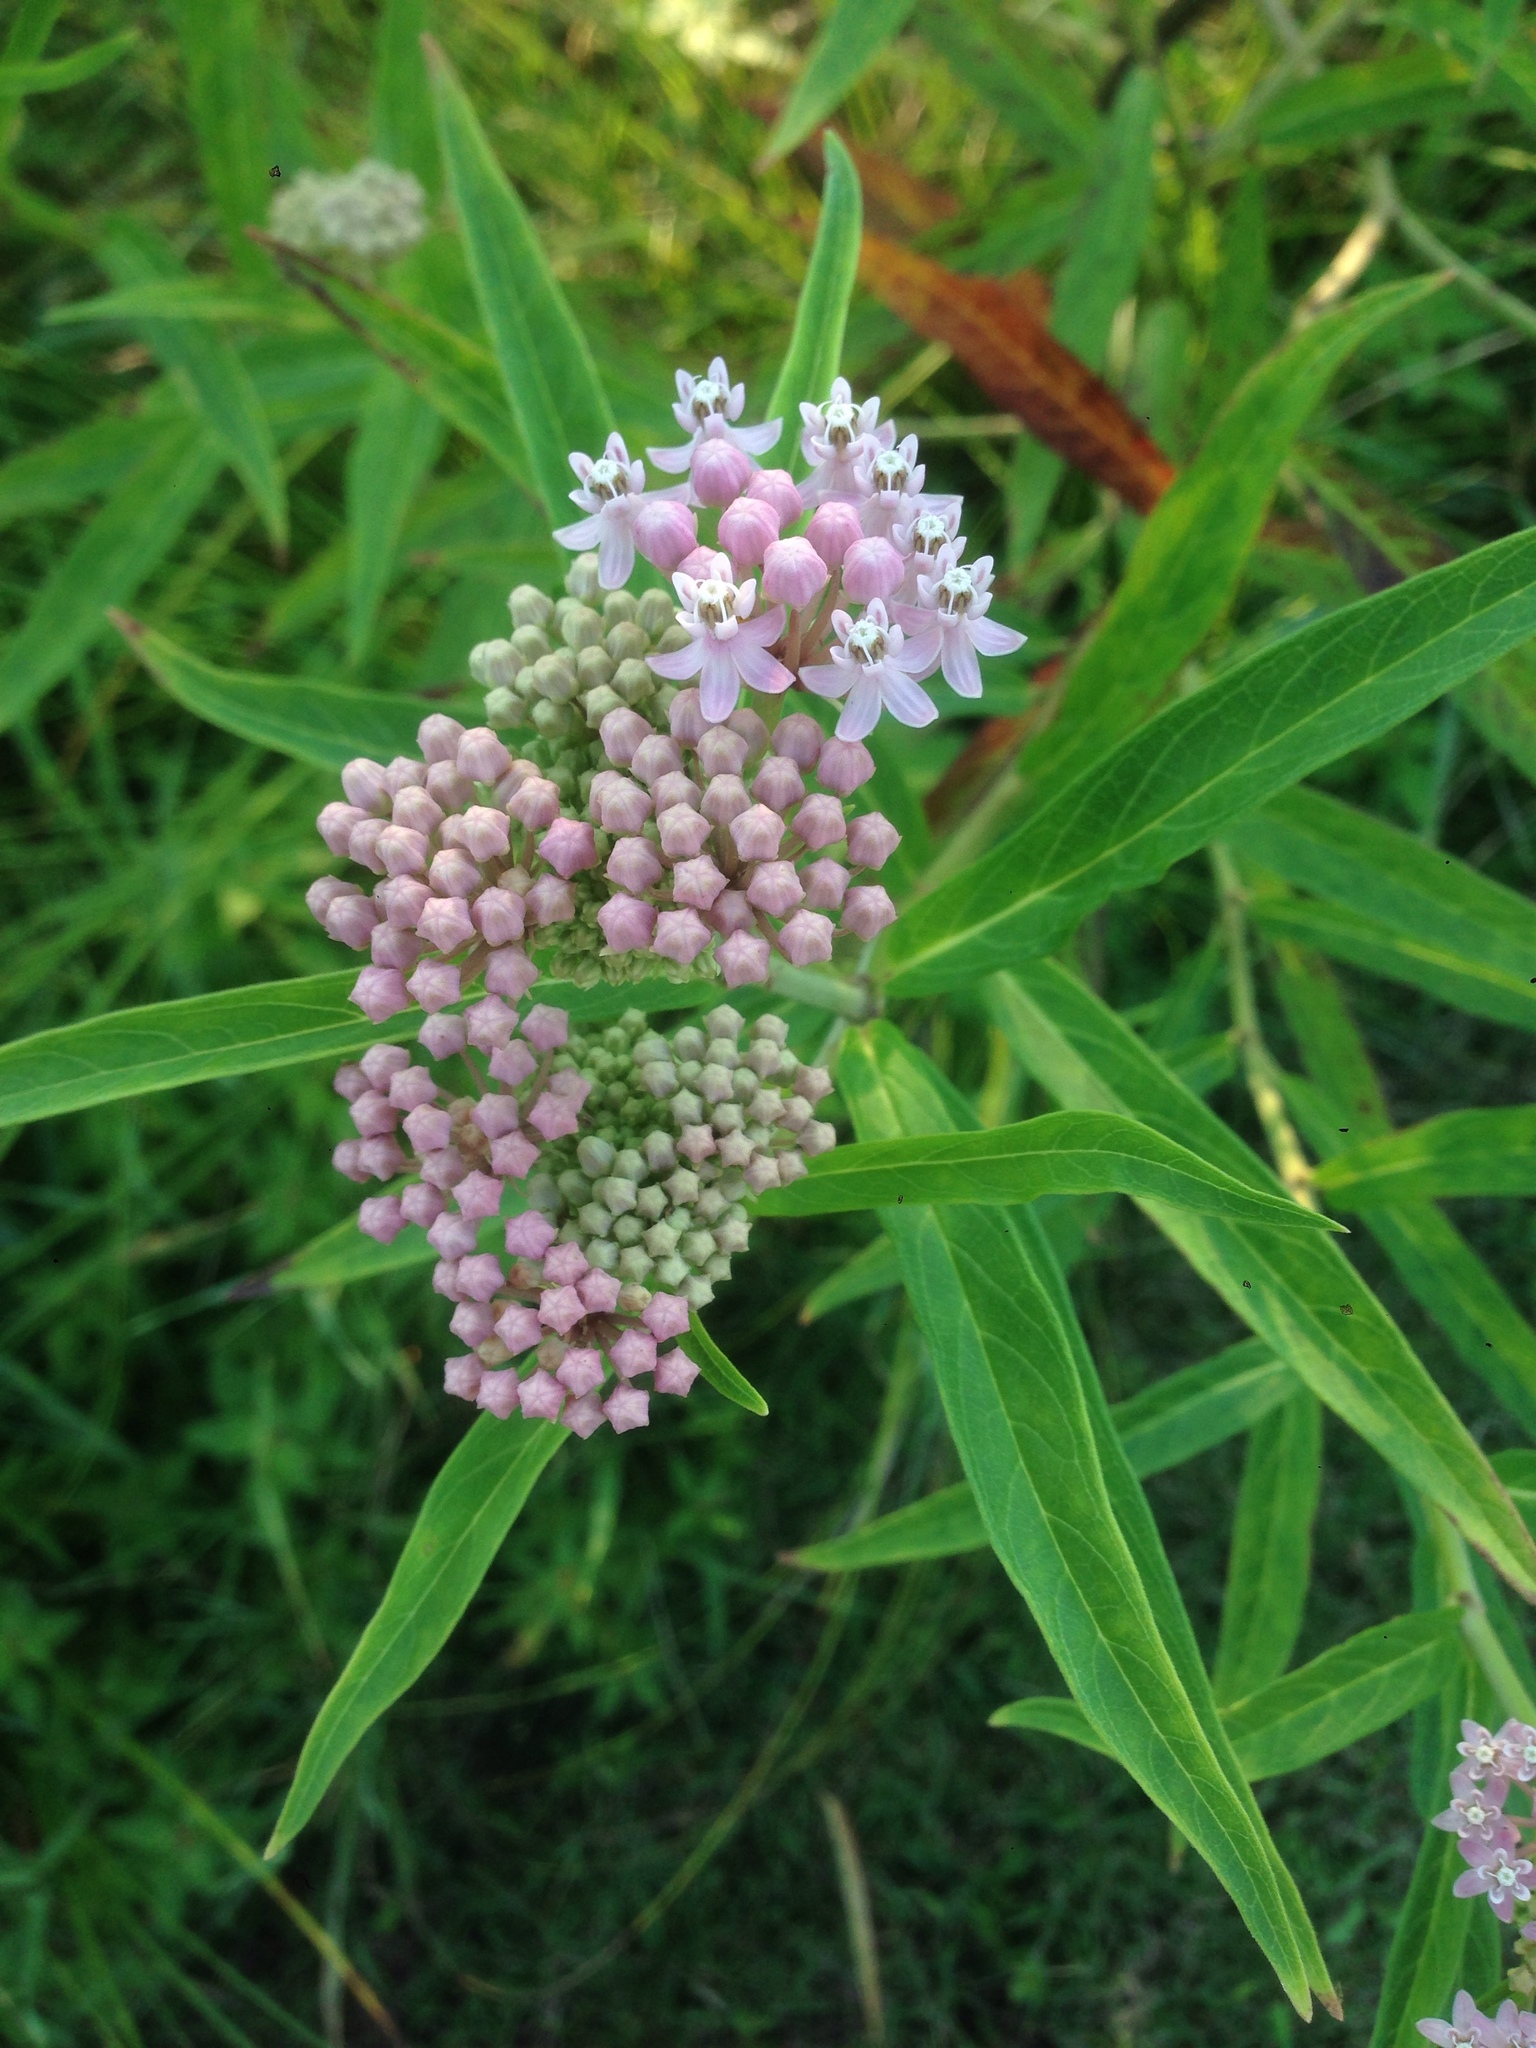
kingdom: Plantae
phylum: Tracheophyta
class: Magnoliopsida
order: Gentianales
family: Apocynaceae
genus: Asclepias
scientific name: Asclepias incarnata
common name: Swamp milkweed
